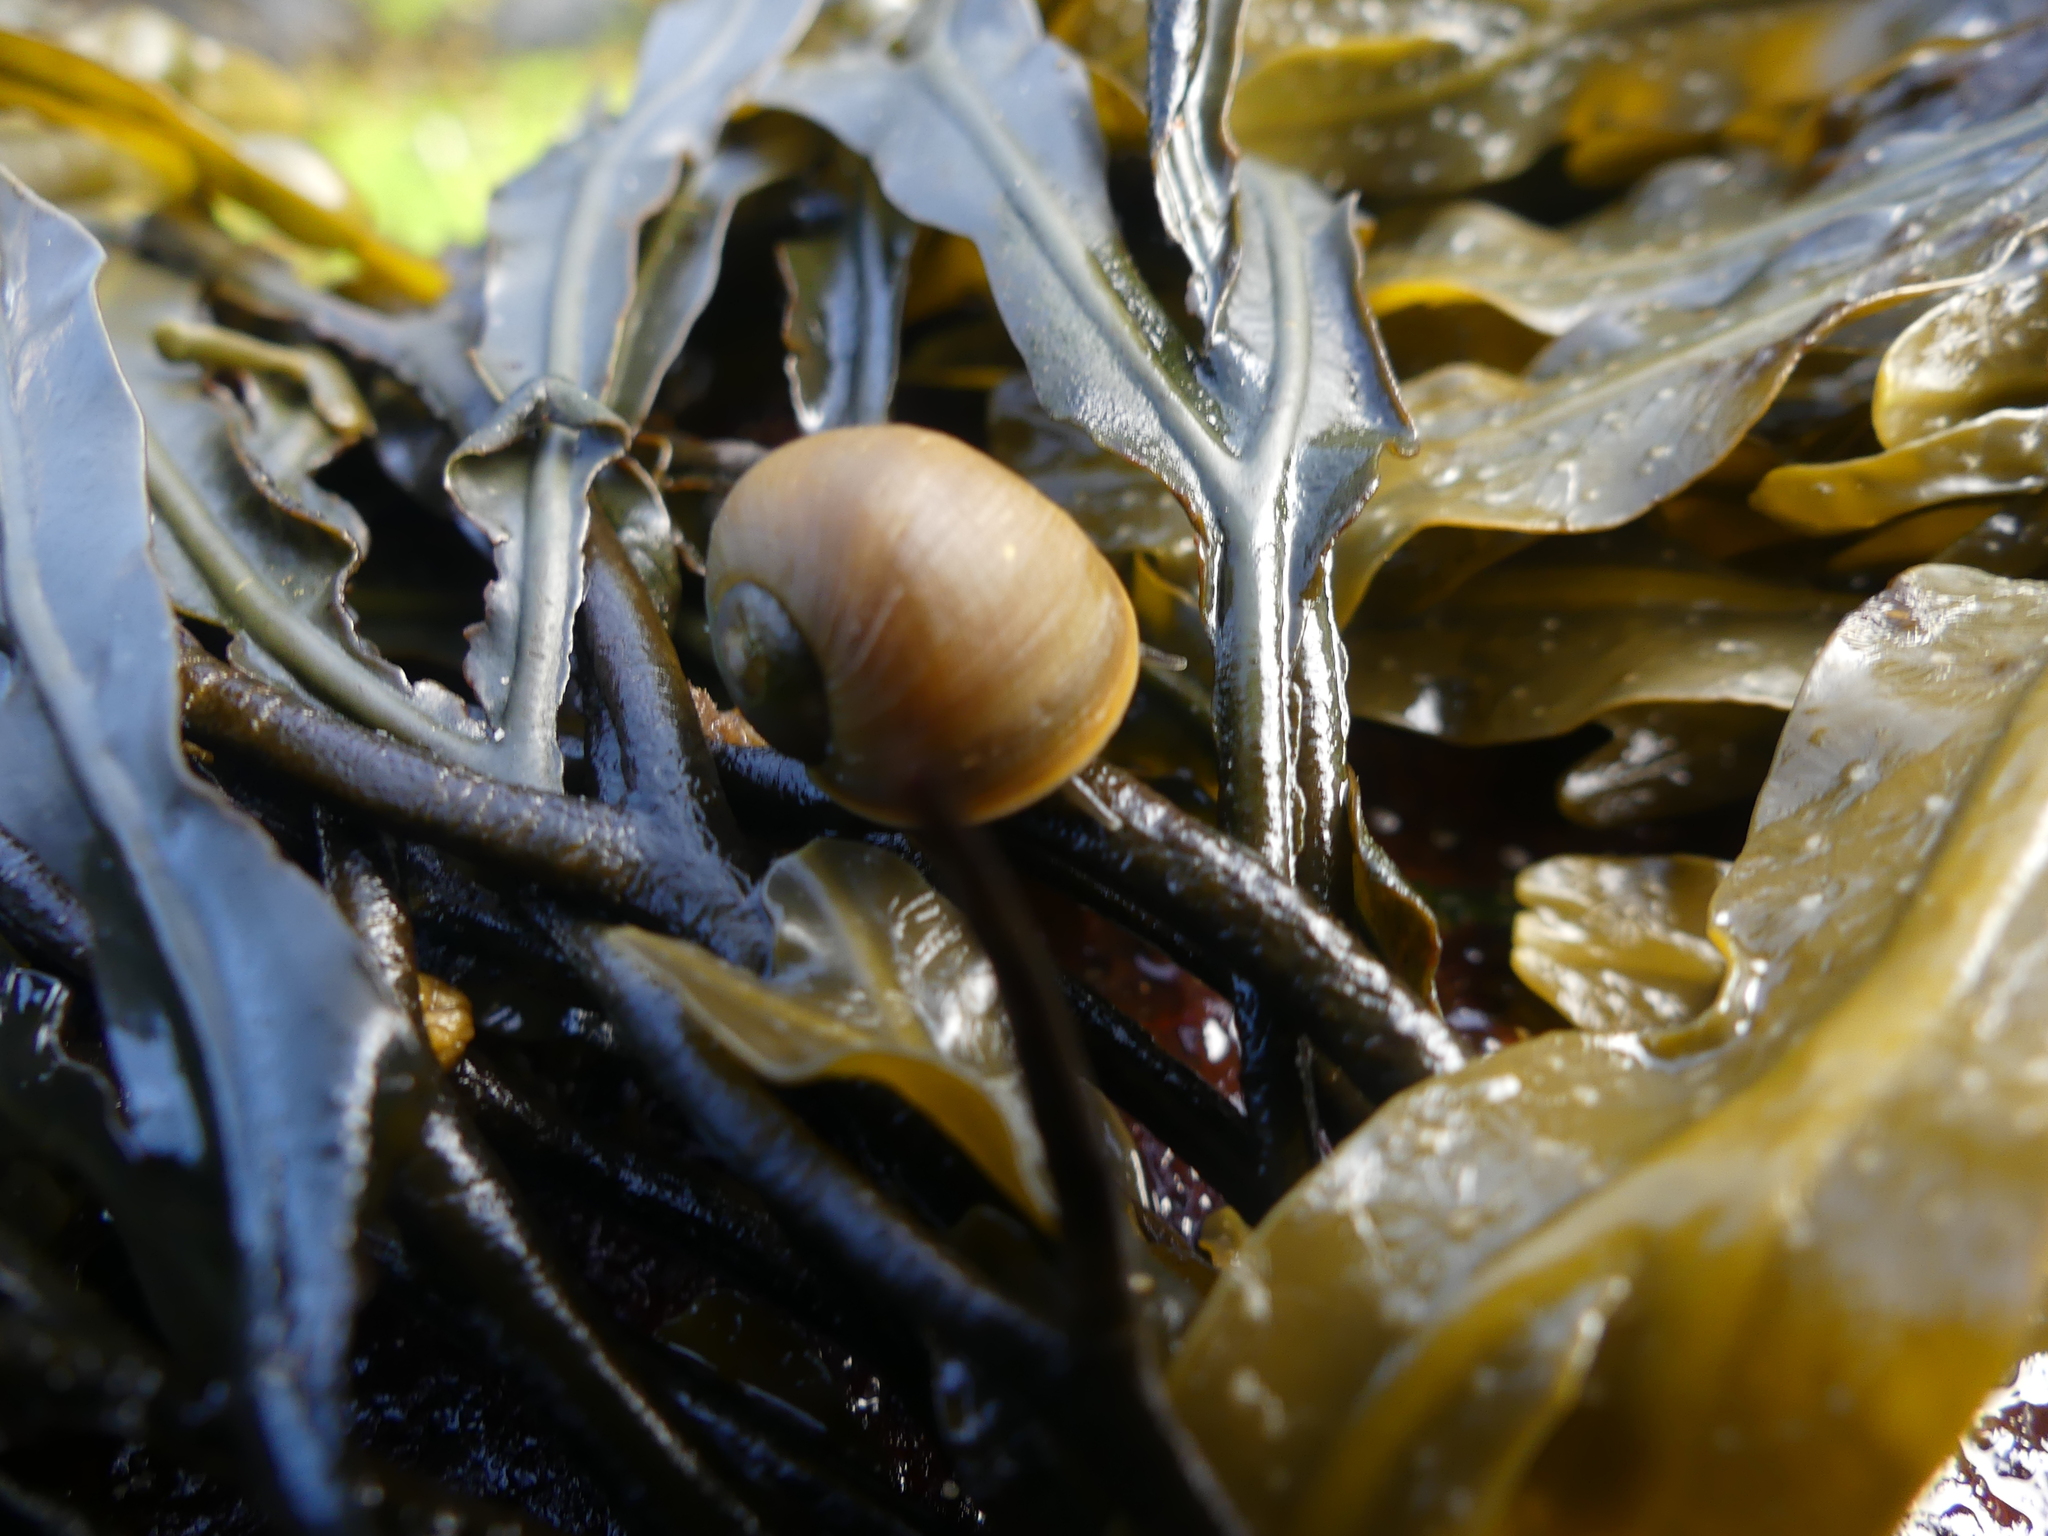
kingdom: Animalia
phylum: Mollusca
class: Gastropoda
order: Littorinimorpha
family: Littorinidae
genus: Littorina
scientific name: Littorina obtusata
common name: Flat periwinkle
